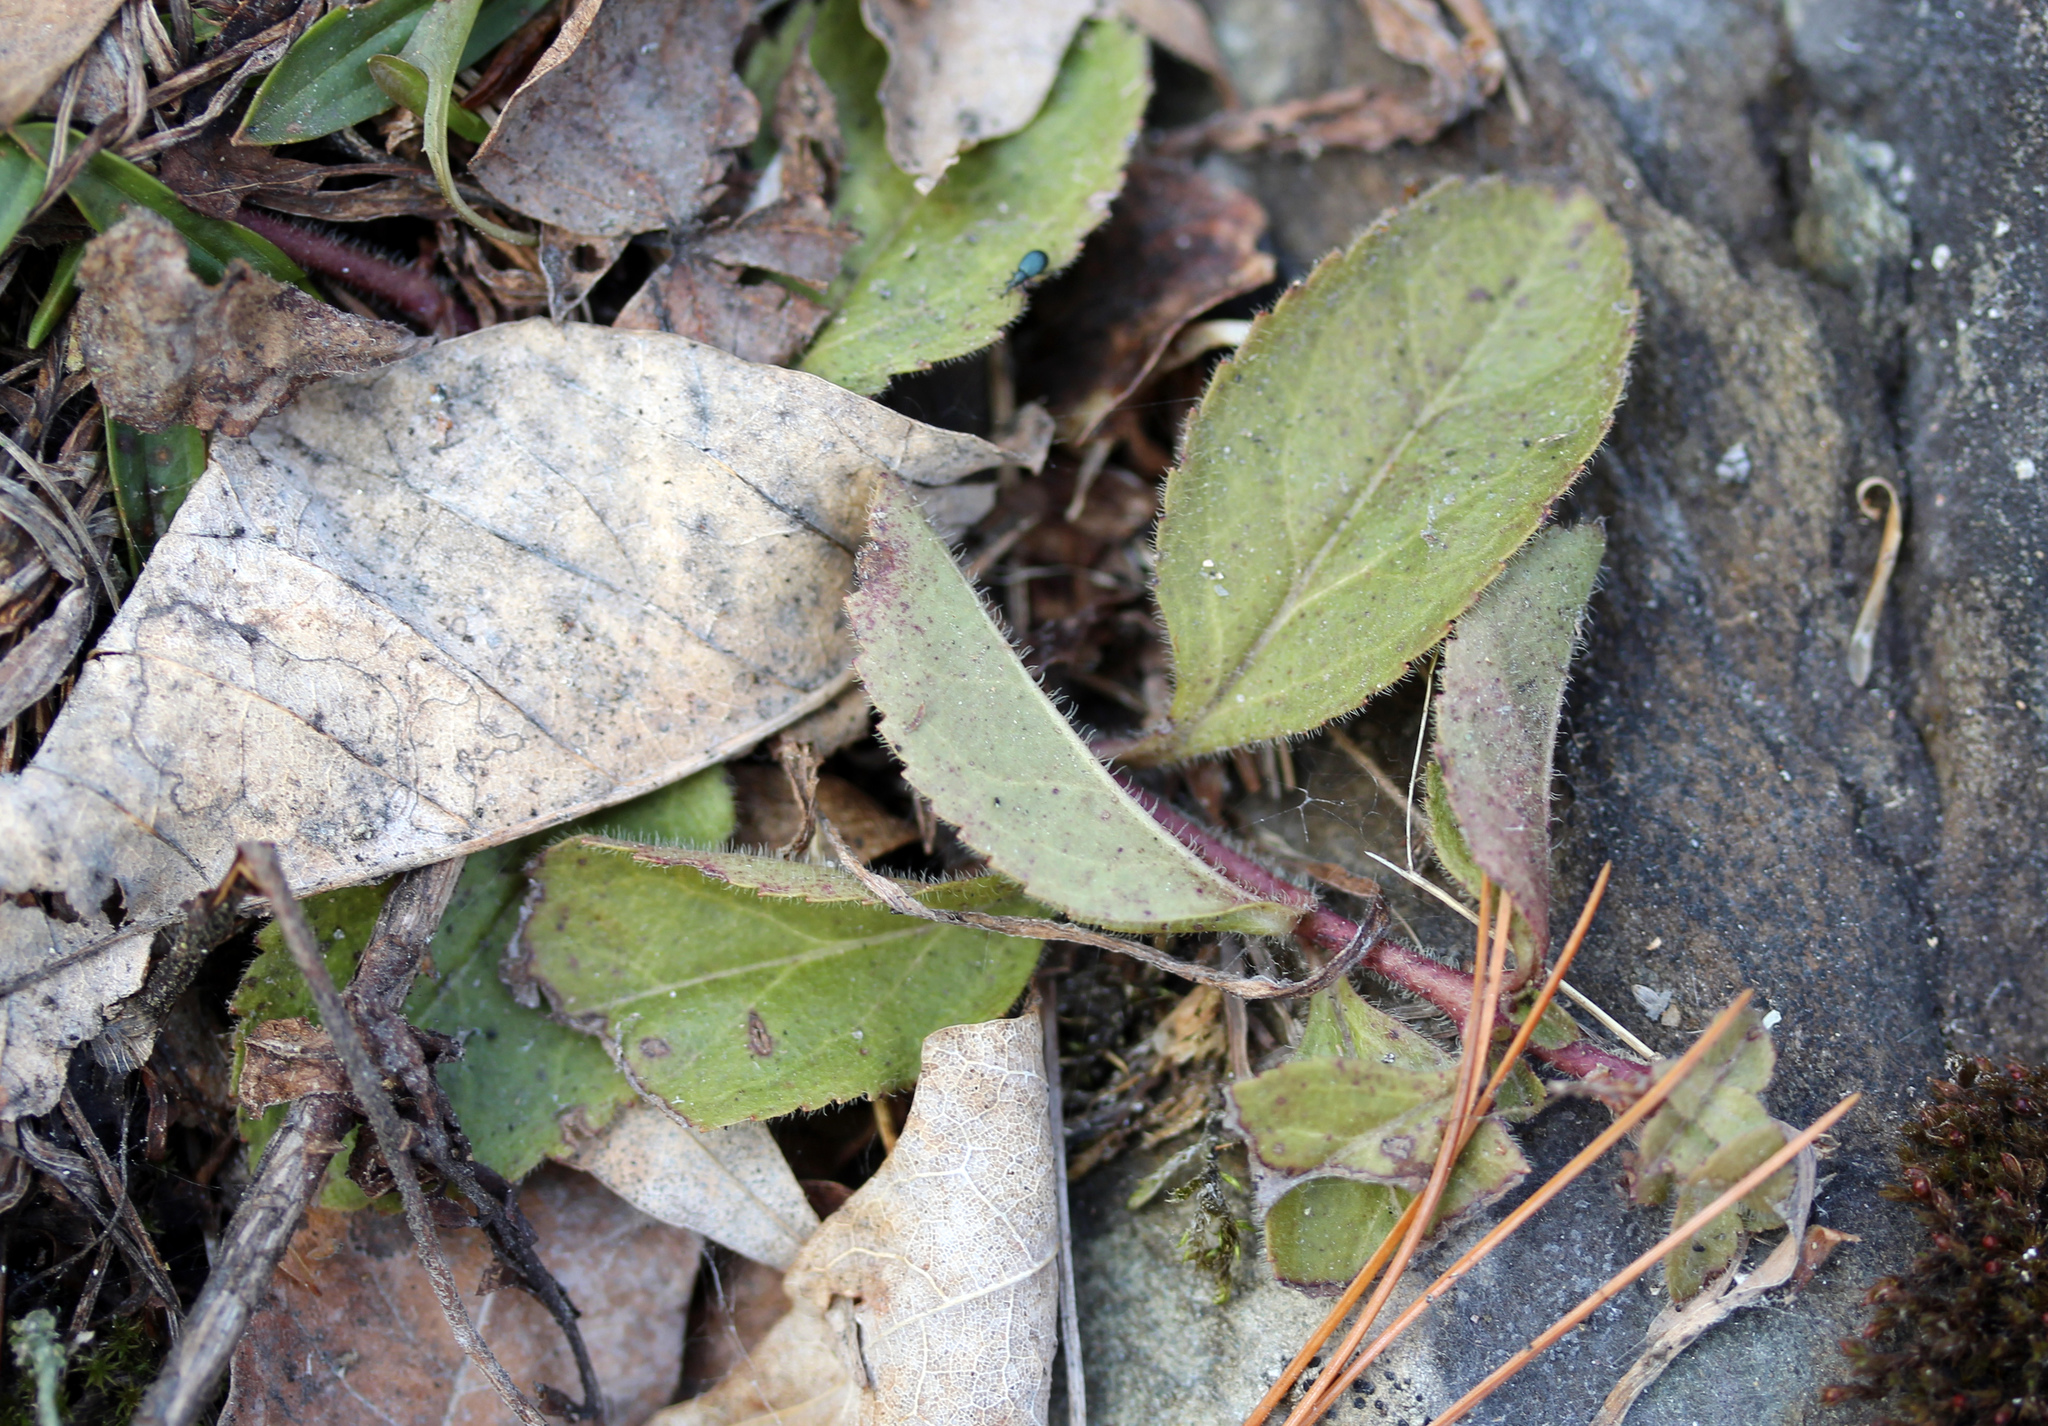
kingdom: Plantae
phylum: Tracheophyta
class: Magnoliopsida
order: Lamiales
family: Plantaginaceae
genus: Veronica
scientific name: Veronica officinalis
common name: Common speedwell
